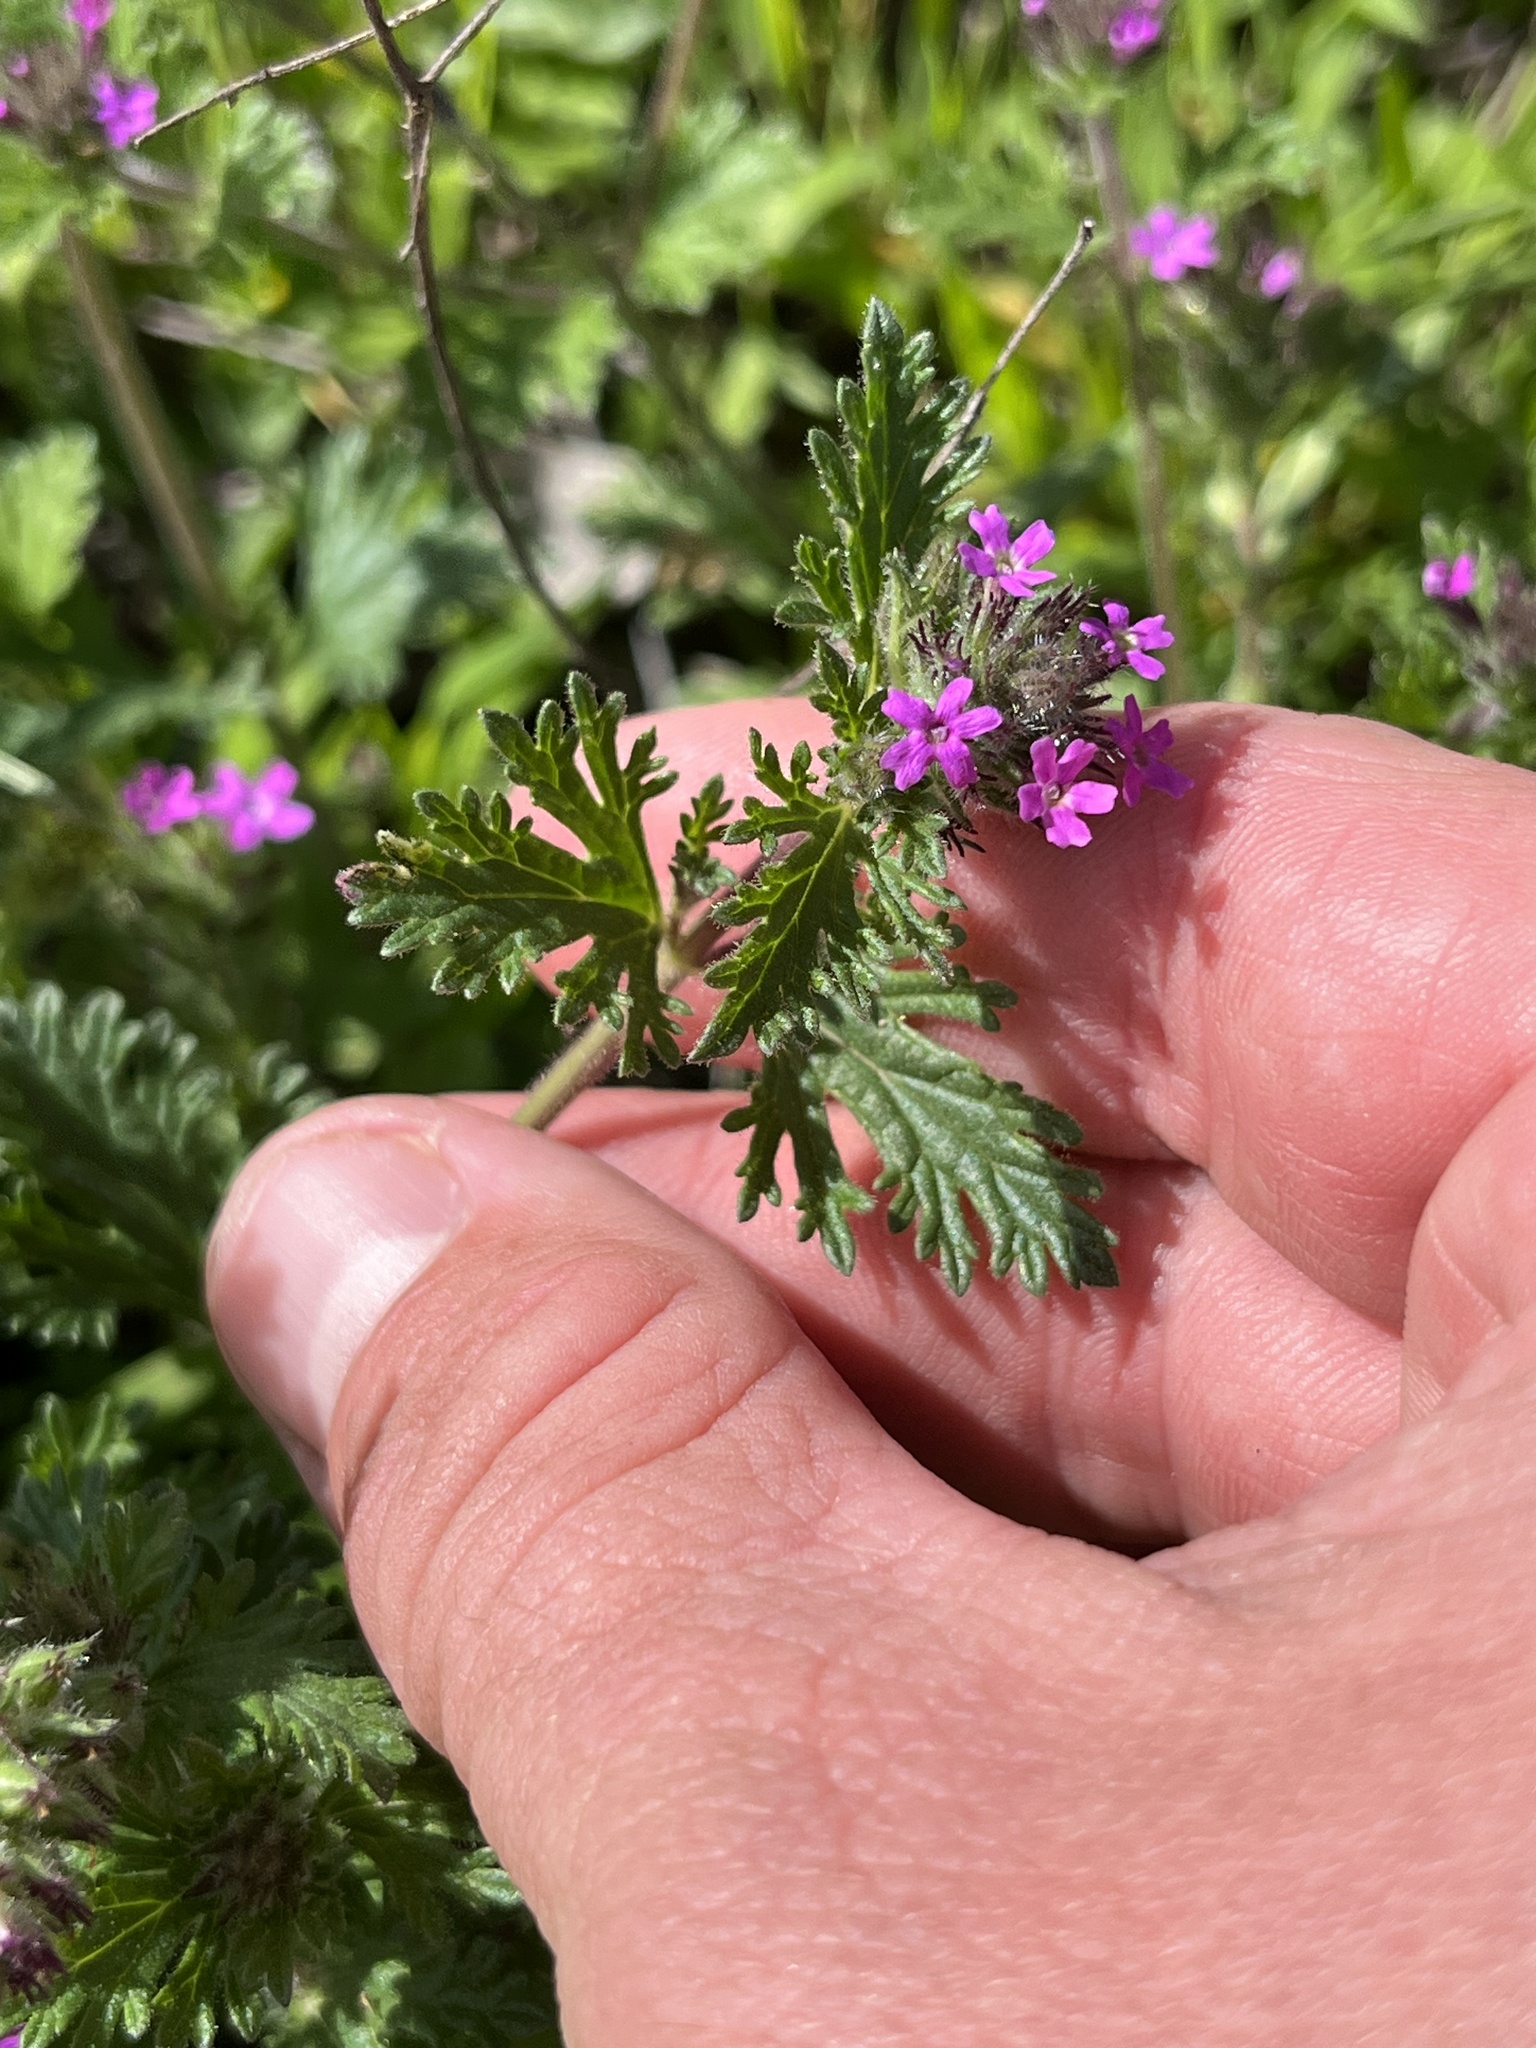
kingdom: Plantae
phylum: Tracheophyta
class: Magnoliopsida
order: Lamiales
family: Verbenaceae
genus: Verbena
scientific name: Verbena pumila
